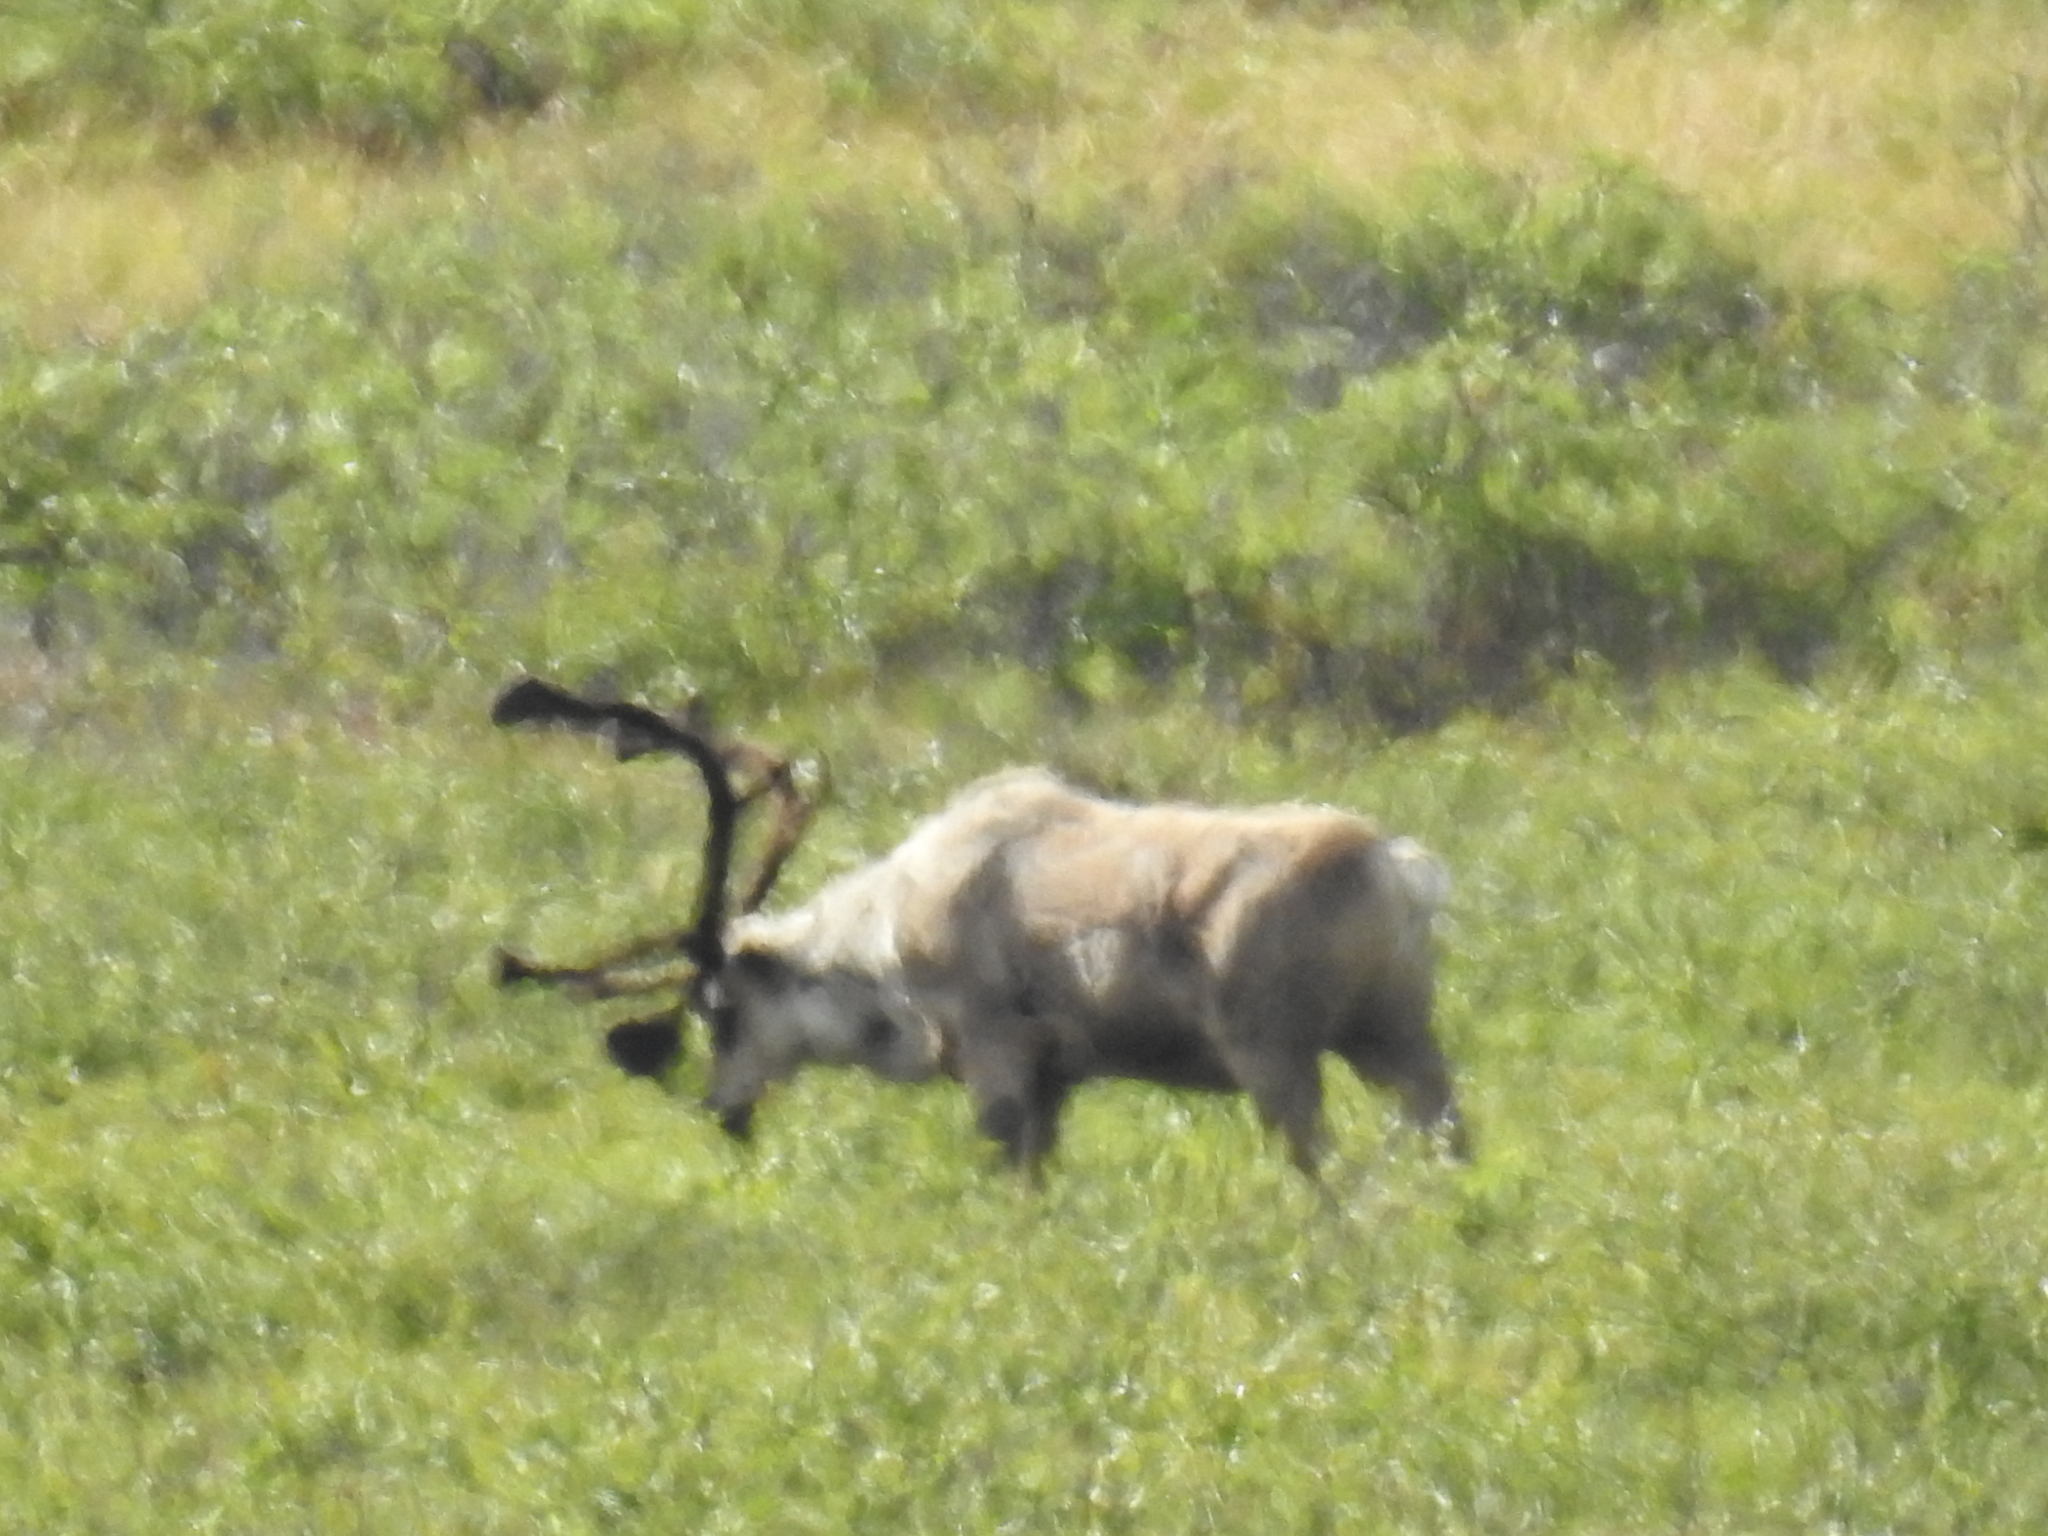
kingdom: Animalia
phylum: Chordata
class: Mammalia
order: Artiodactyla
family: Cervidae
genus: Rangifer
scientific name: Rangifer tarandus
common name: Reindeer
